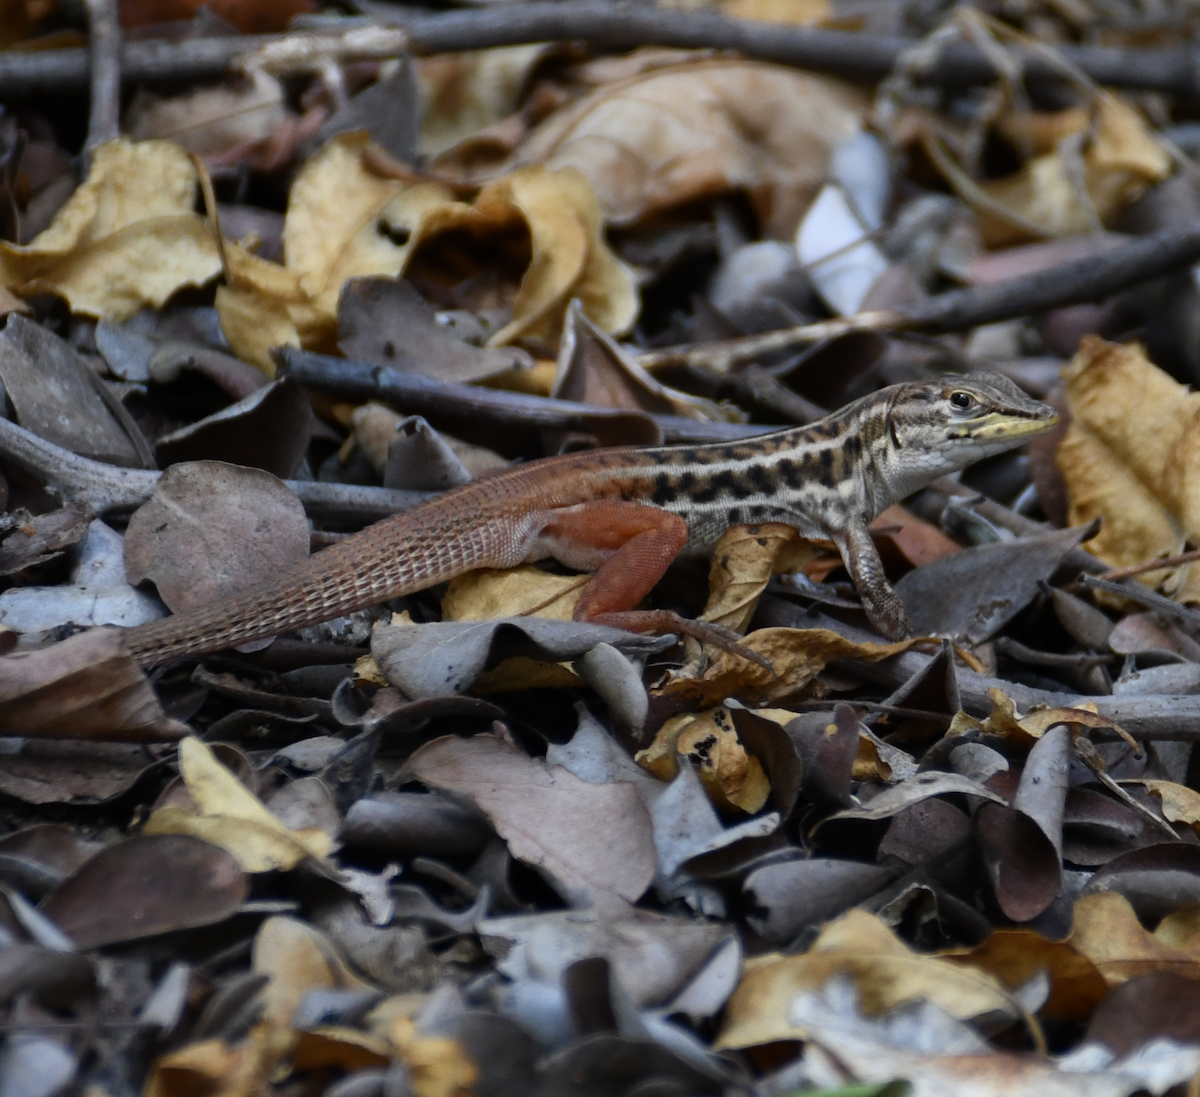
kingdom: Animalia
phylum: Chordata
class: Squamata
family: Lacertidae
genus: Heliobolus
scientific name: Heliobolus lugubris
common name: Bushveld lizard
